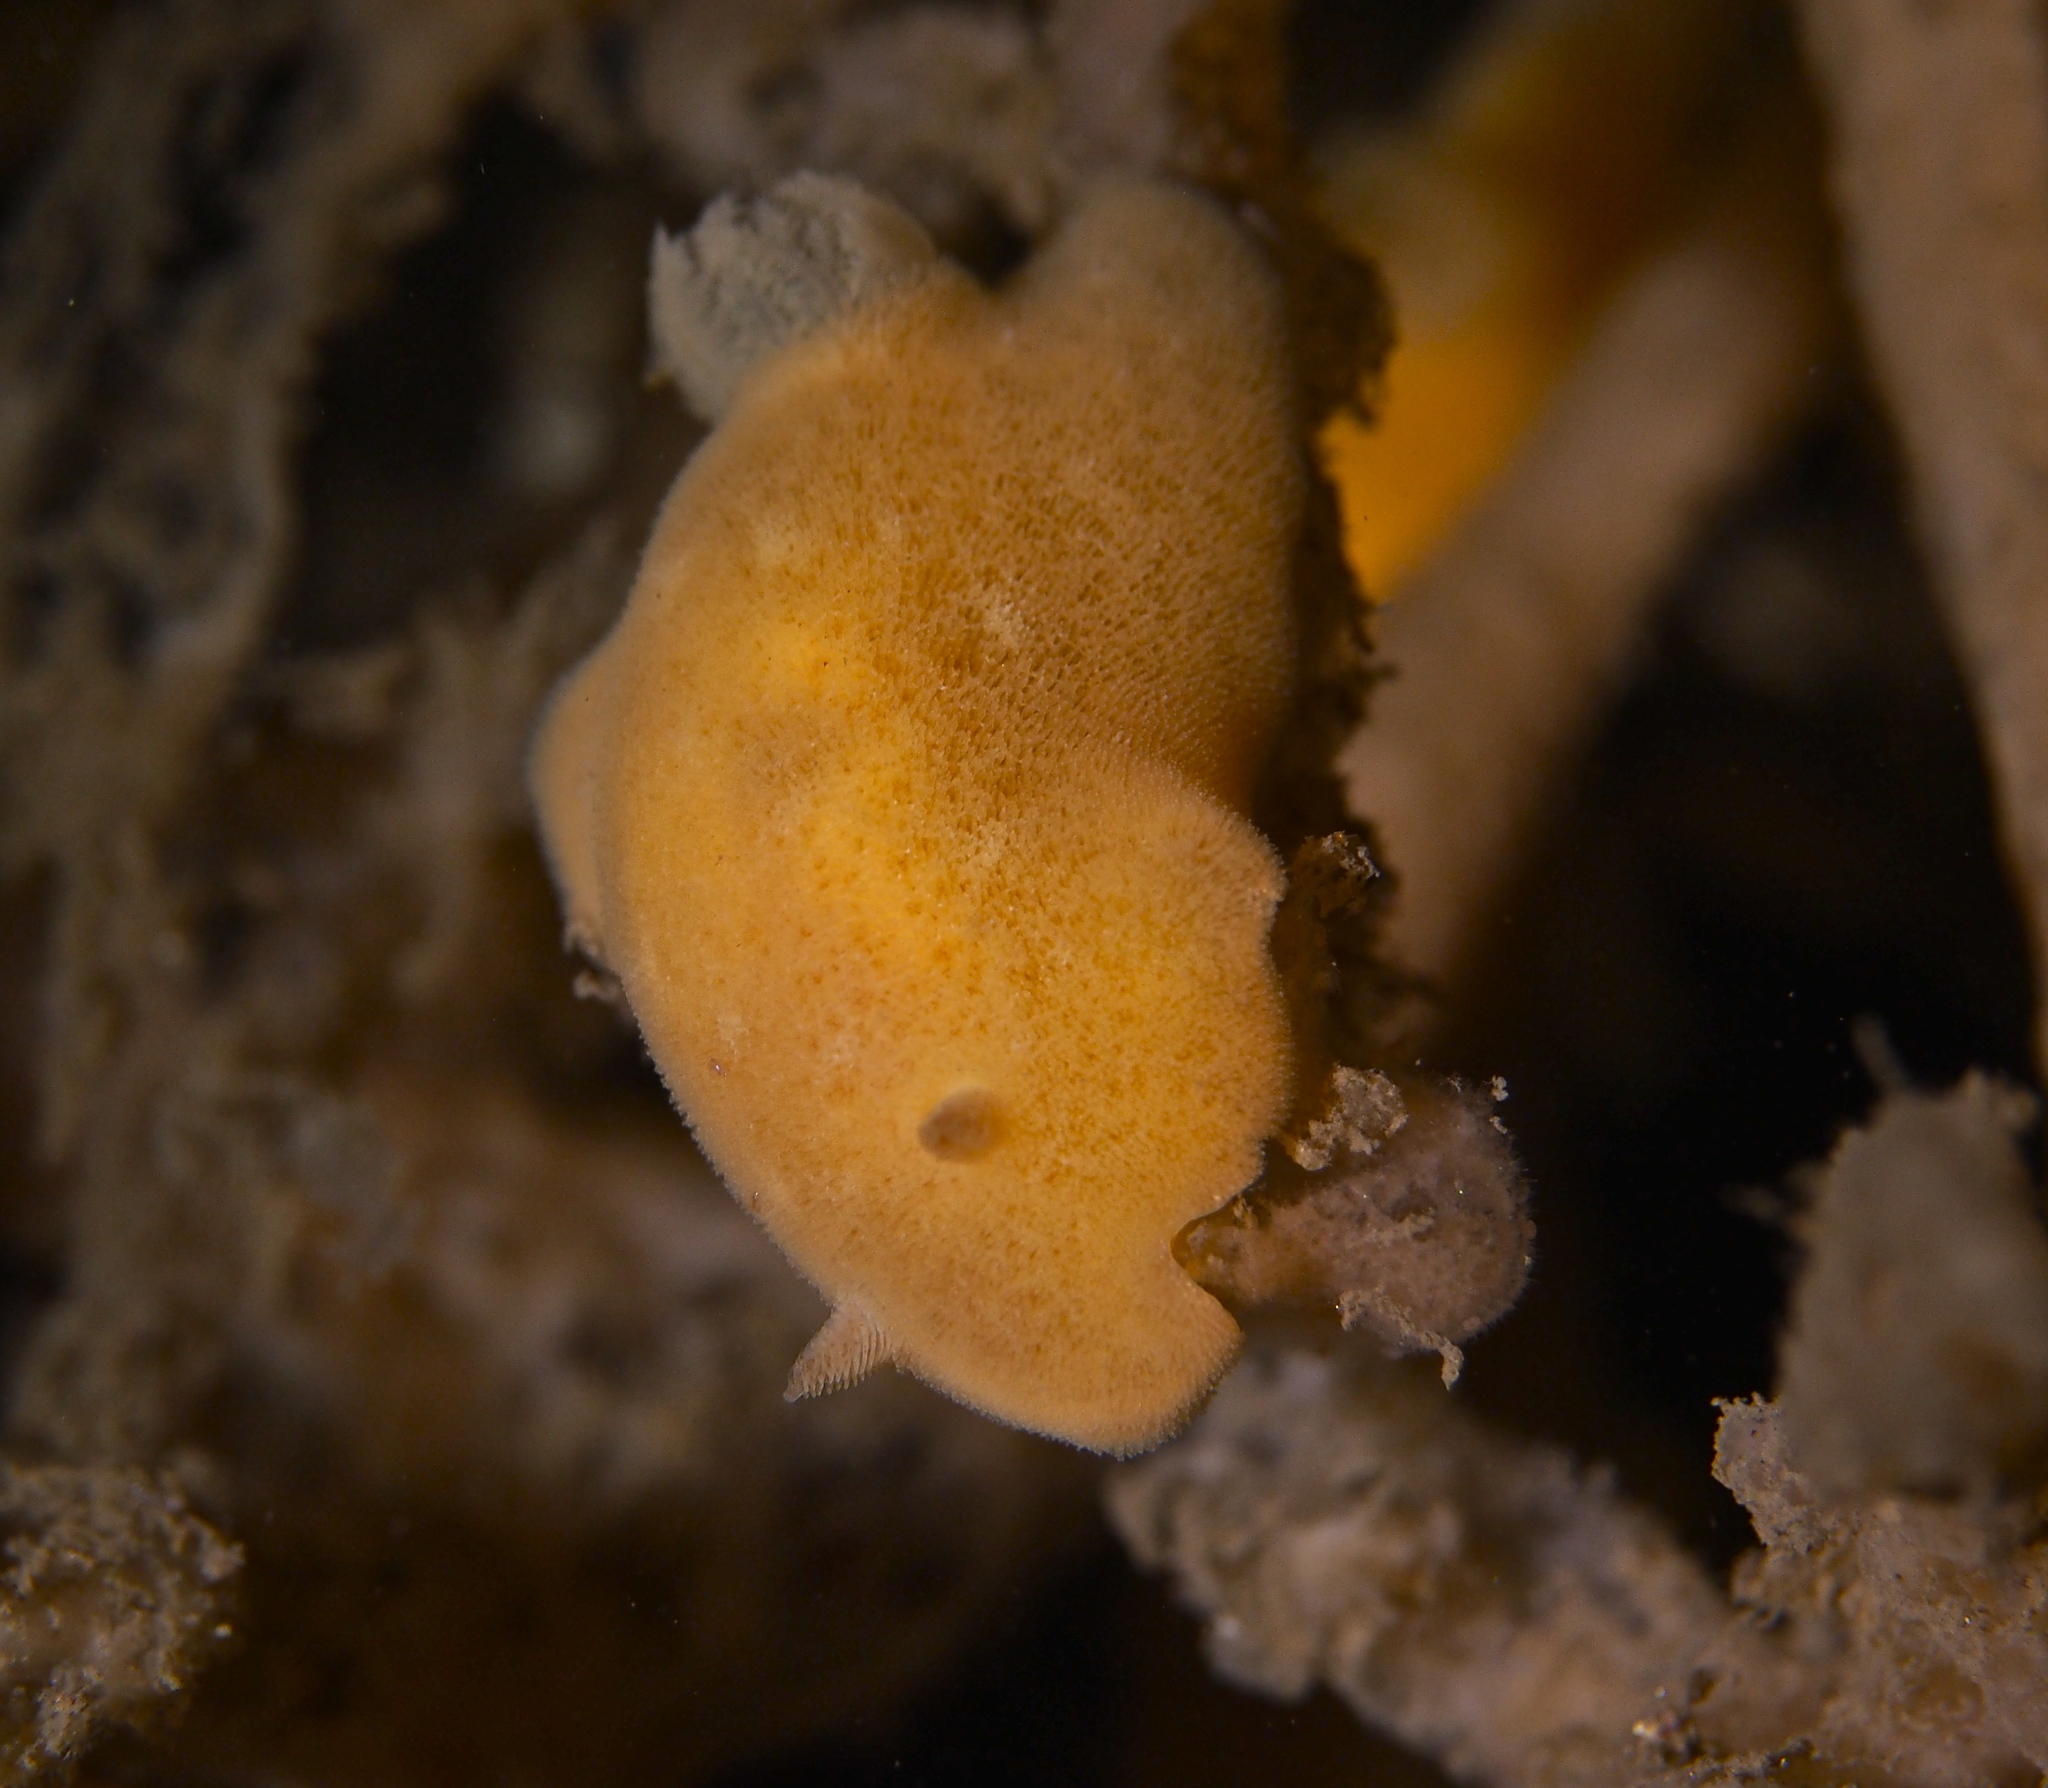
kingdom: Animalia
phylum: Mollusca
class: Gastropoda
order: Nudibranchia
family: Discodorididae
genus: Jorunna
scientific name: Jorunna tomentosa
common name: Grey sea slug
